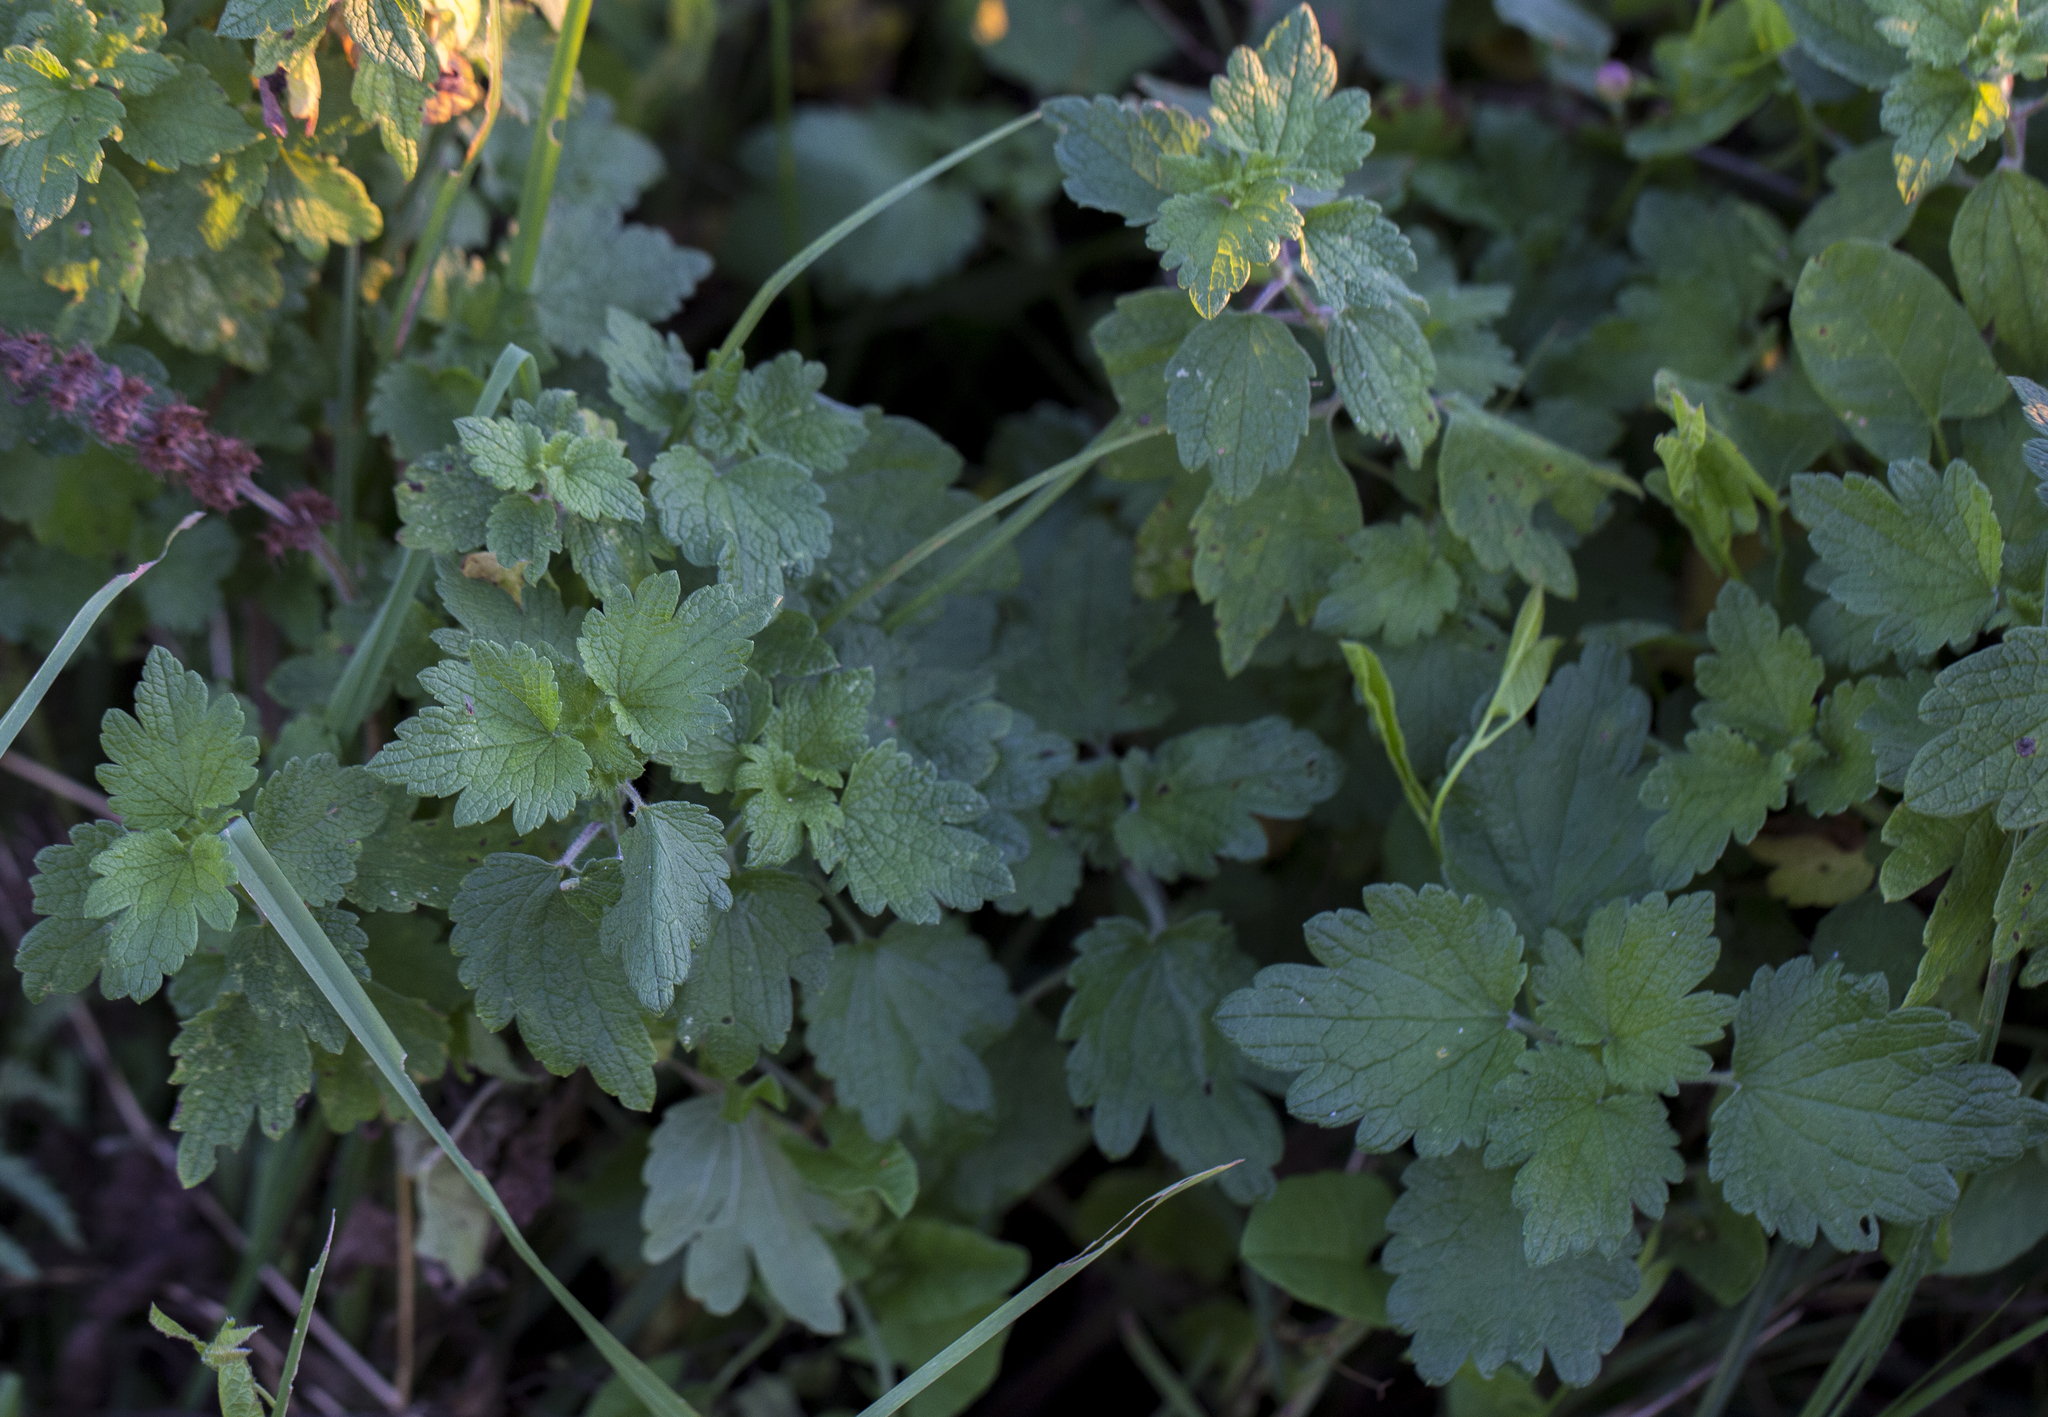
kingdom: Plantae
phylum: Tracheophyta
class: Magnoliopsida
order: Lamiales
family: Lamiaceae
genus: Leonurus
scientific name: Leonurus quinquelobatus
